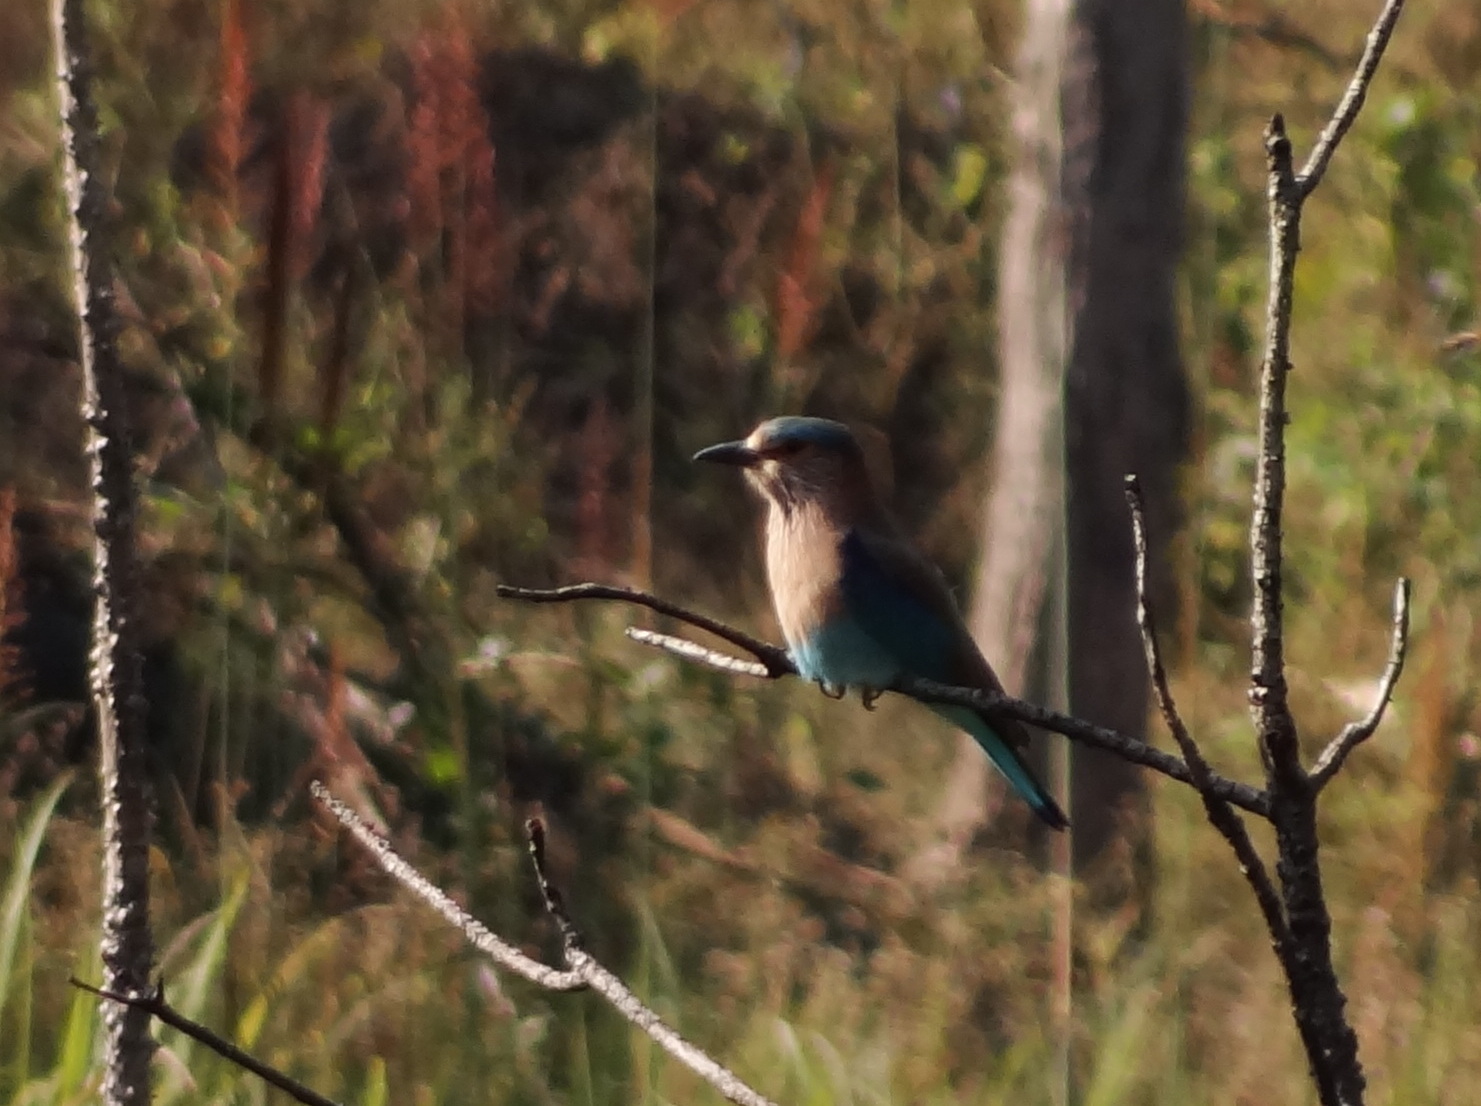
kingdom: Animalia
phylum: Chordata
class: Aves
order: Coraciiformes
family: Coraciidae
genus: Coracias
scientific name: Coracias benghalensis
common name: Indian roller
